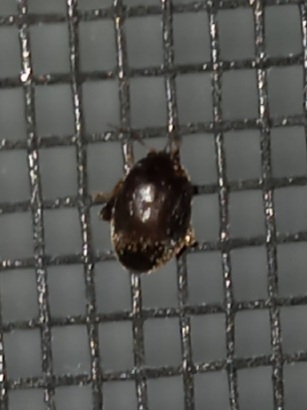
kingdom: Animalia
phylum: Arthropoda
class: Insecta
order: Coleoptera
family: Scirtidae
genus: Scirtes
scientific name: Scirtes tibialis
